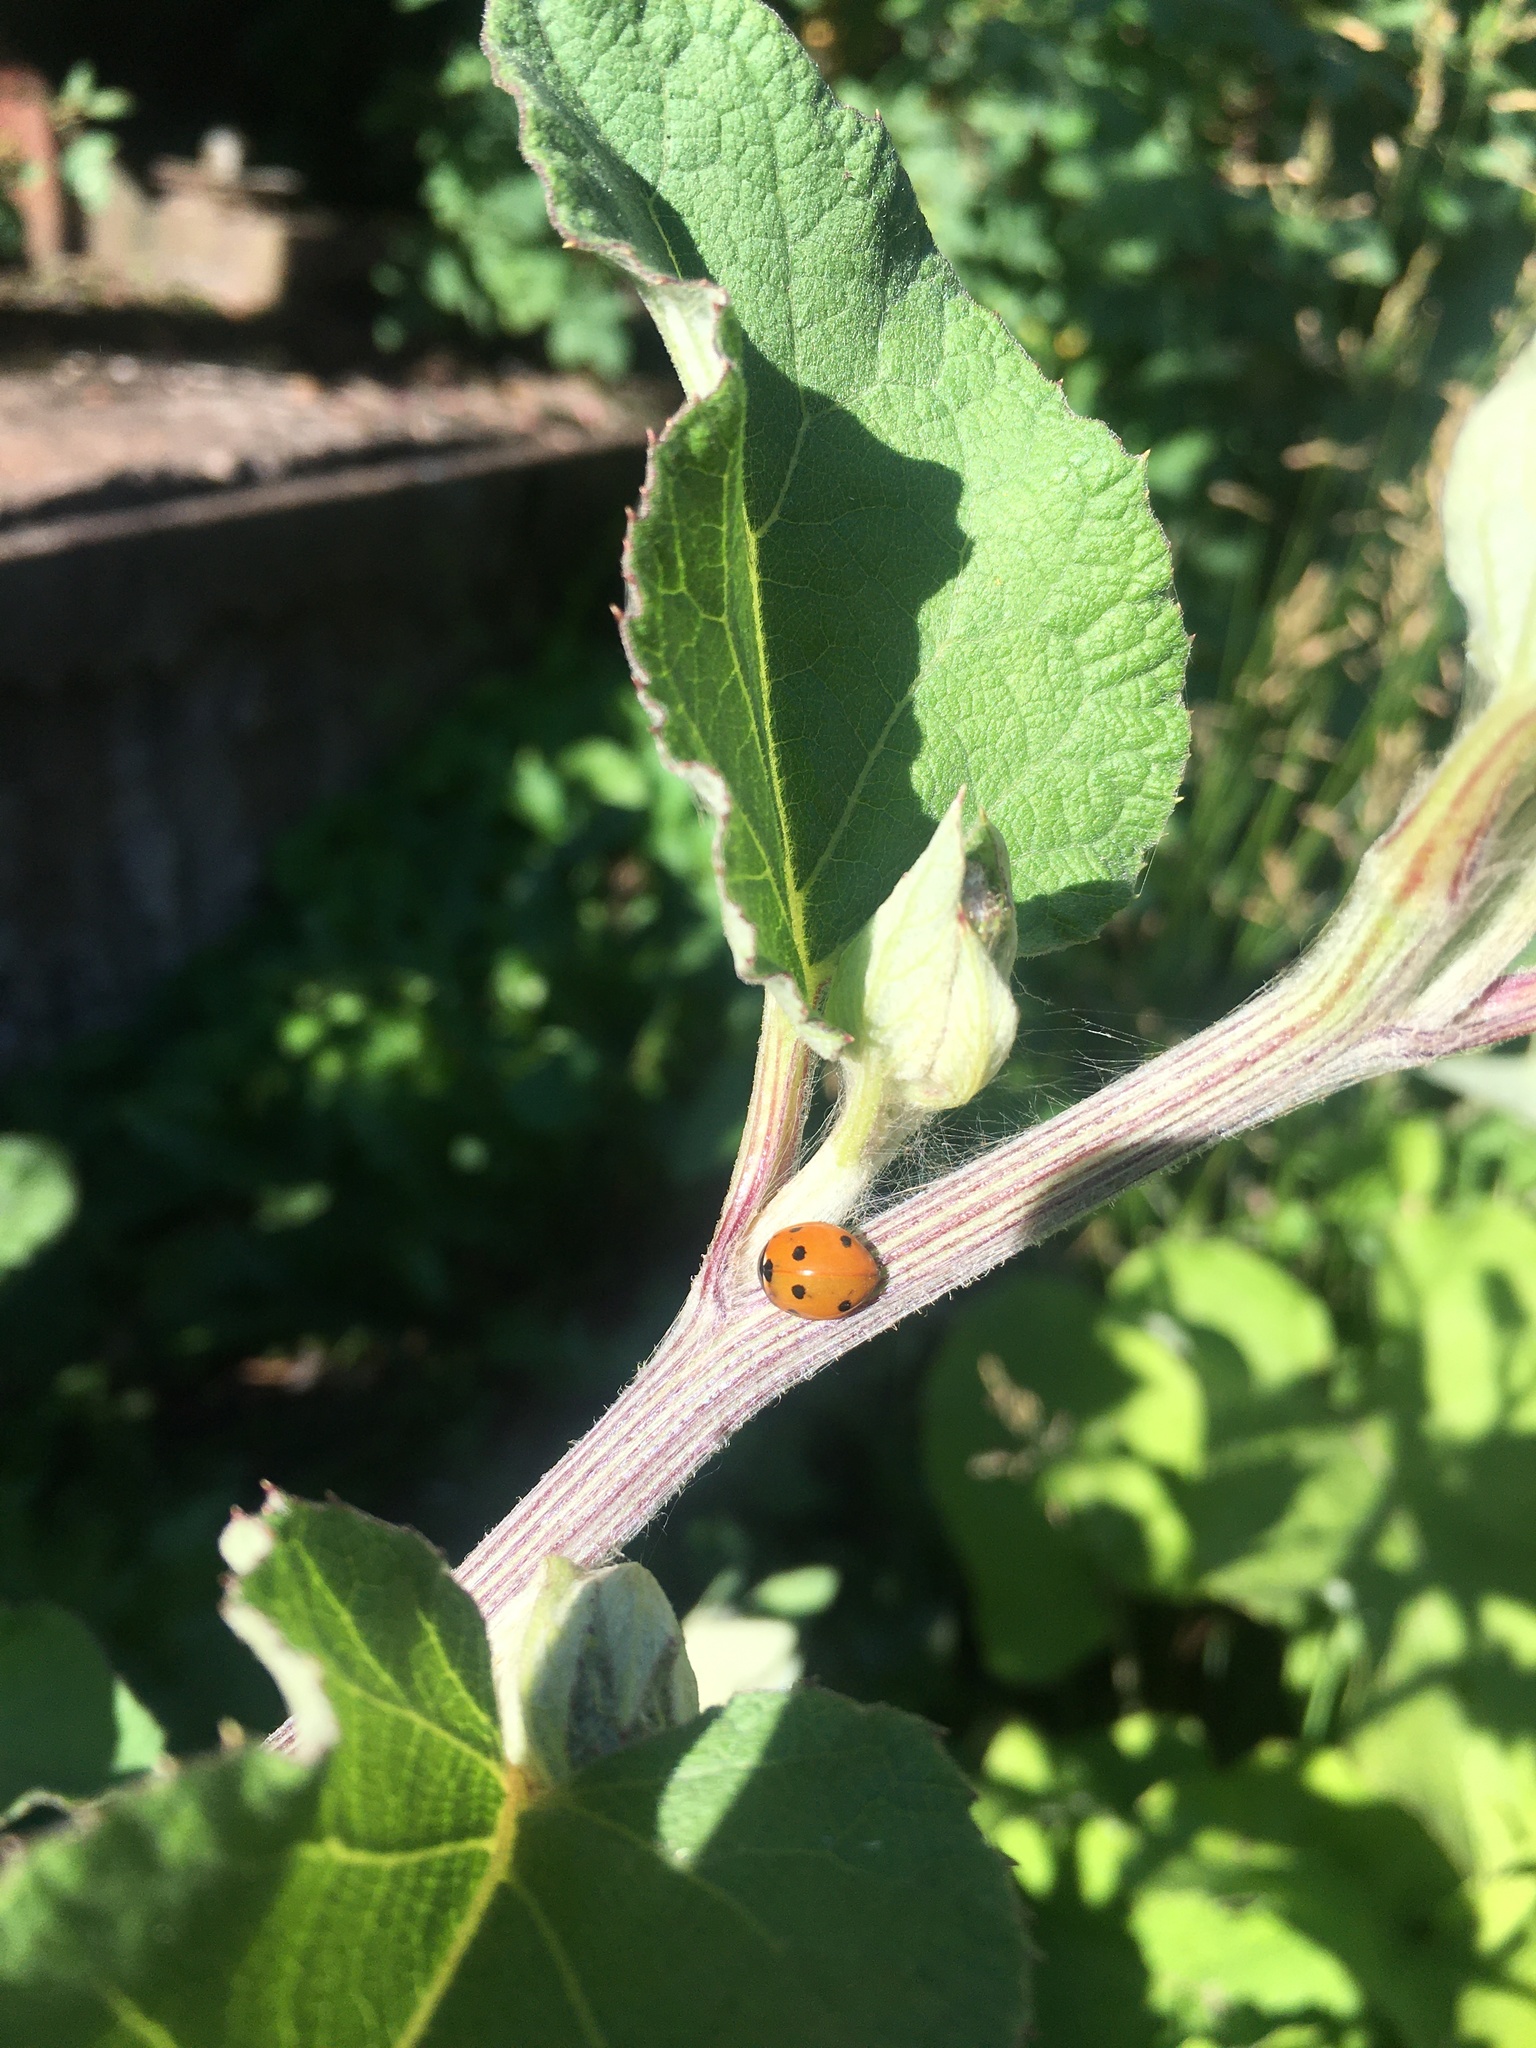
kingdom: Animalia
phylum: Arthropoda
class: Insecta
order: Coleoptera
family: Coccinellidae
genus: Coccinella
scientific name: Coccinella septempunctata
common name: Sevenspotted lady beetle
